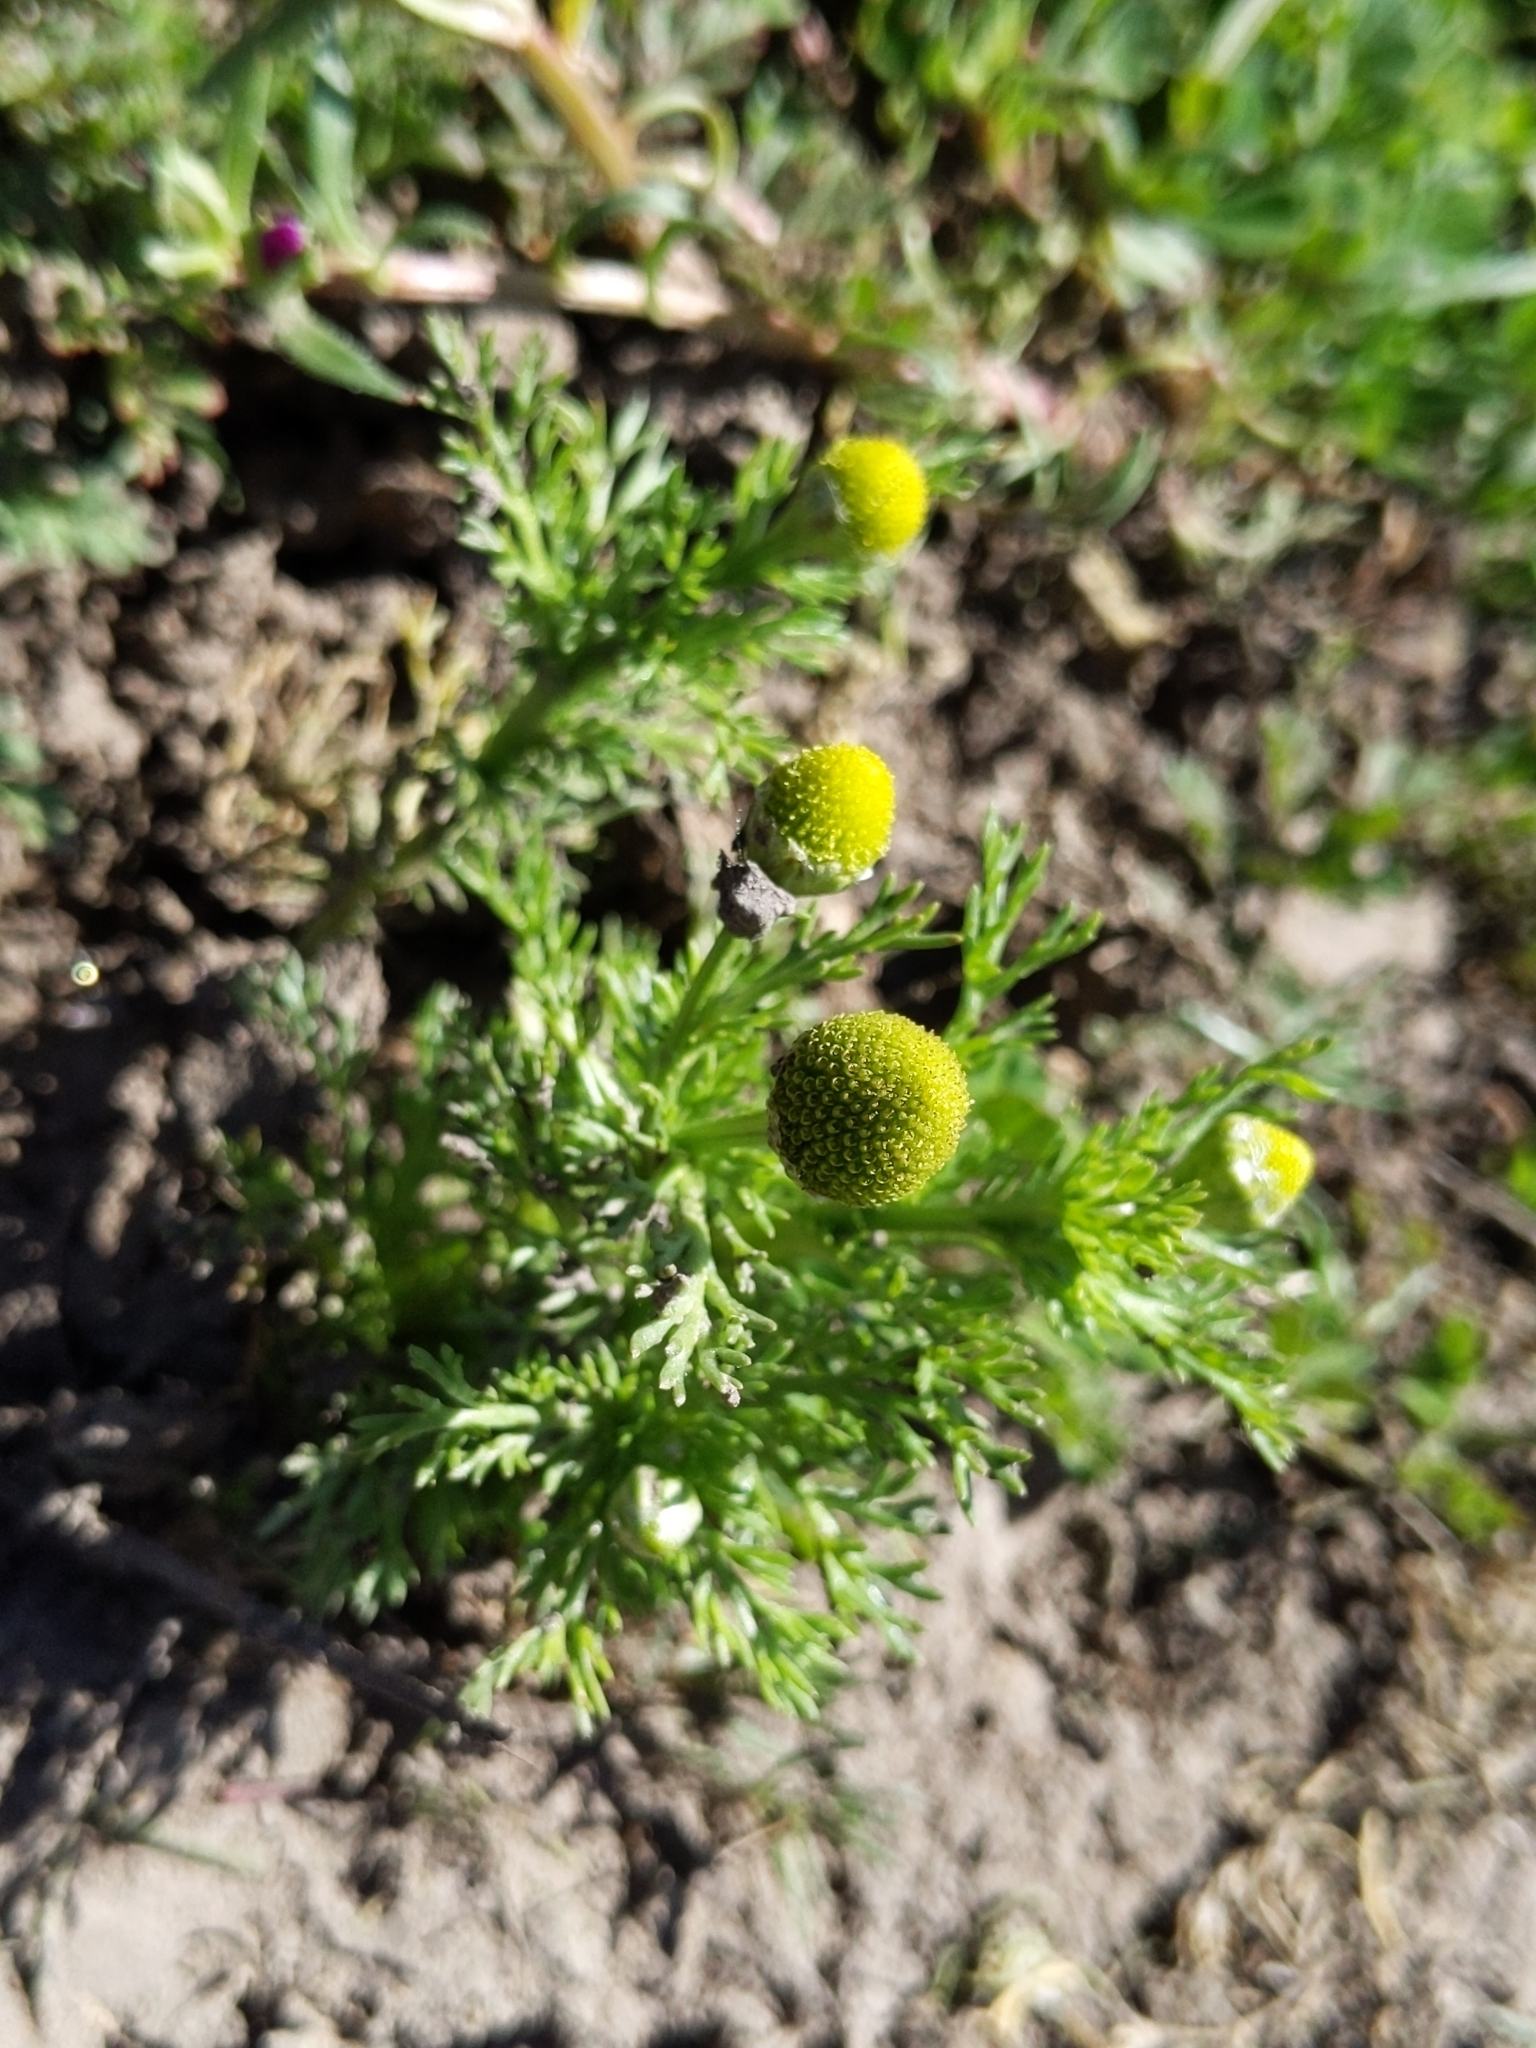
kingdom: Plantae
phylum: Tracheophyta
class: Magnoliopsida
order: Asterales
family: Asteraceae
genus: Matricaria
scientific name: Matricaria discoidea
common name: Disc mayweed
